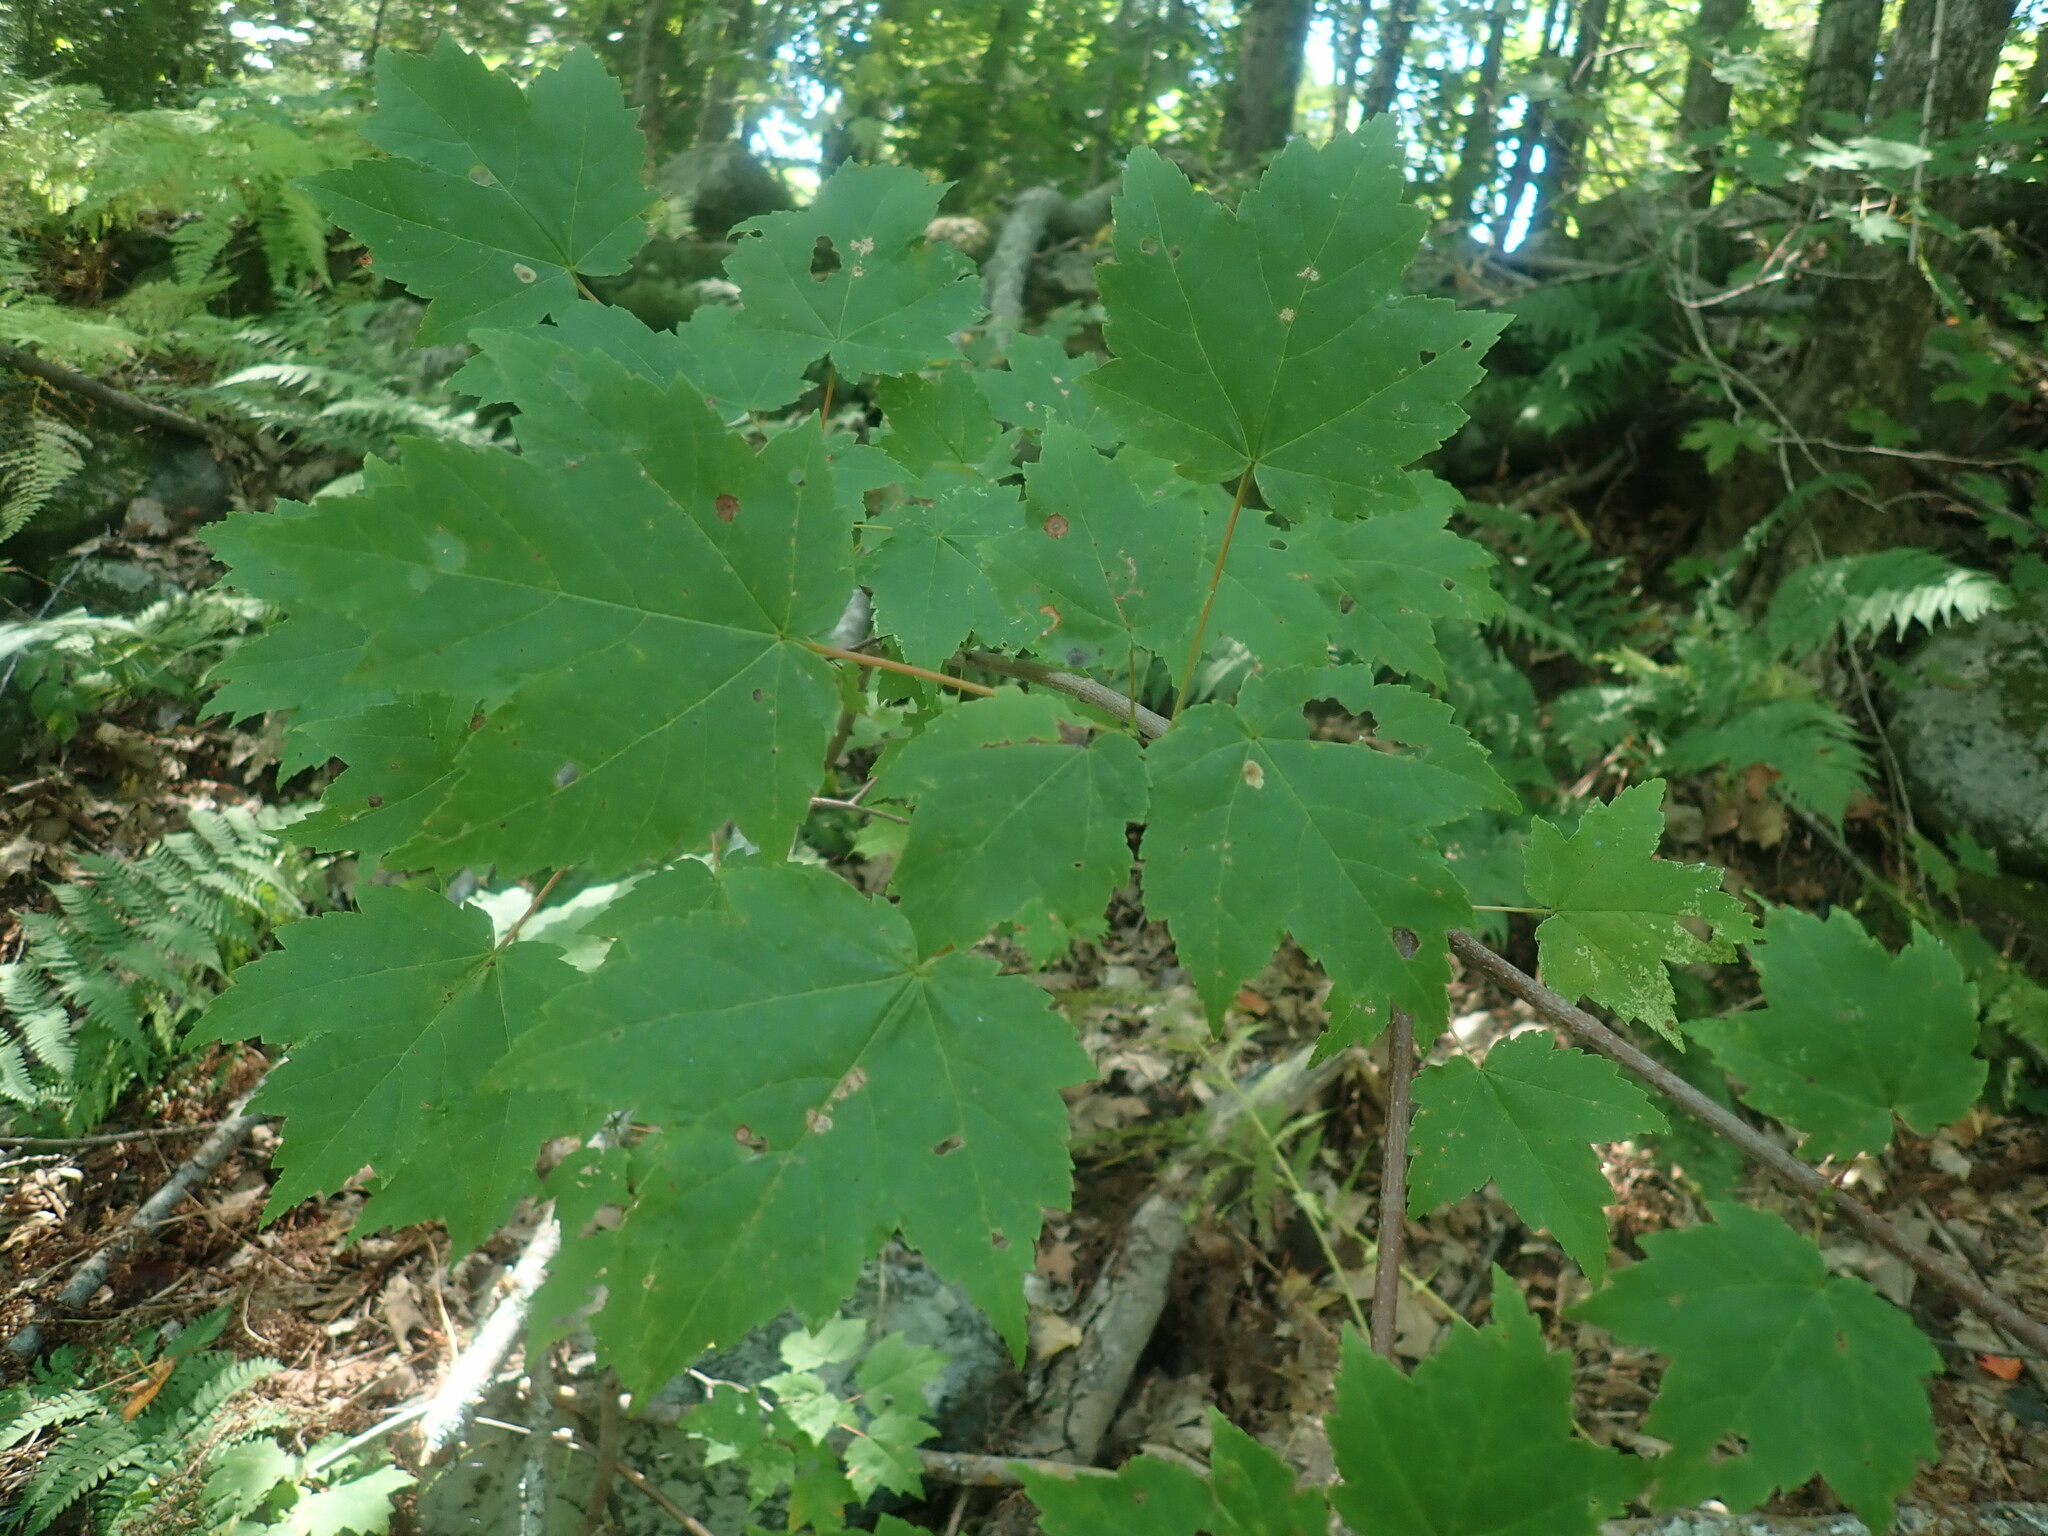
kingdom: Plantae
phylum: Tracheophyta
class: Magnoliopsida
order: Sapindales
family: Sapindaceae
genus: Acer
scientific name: Acer rubrum
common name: Red maple
